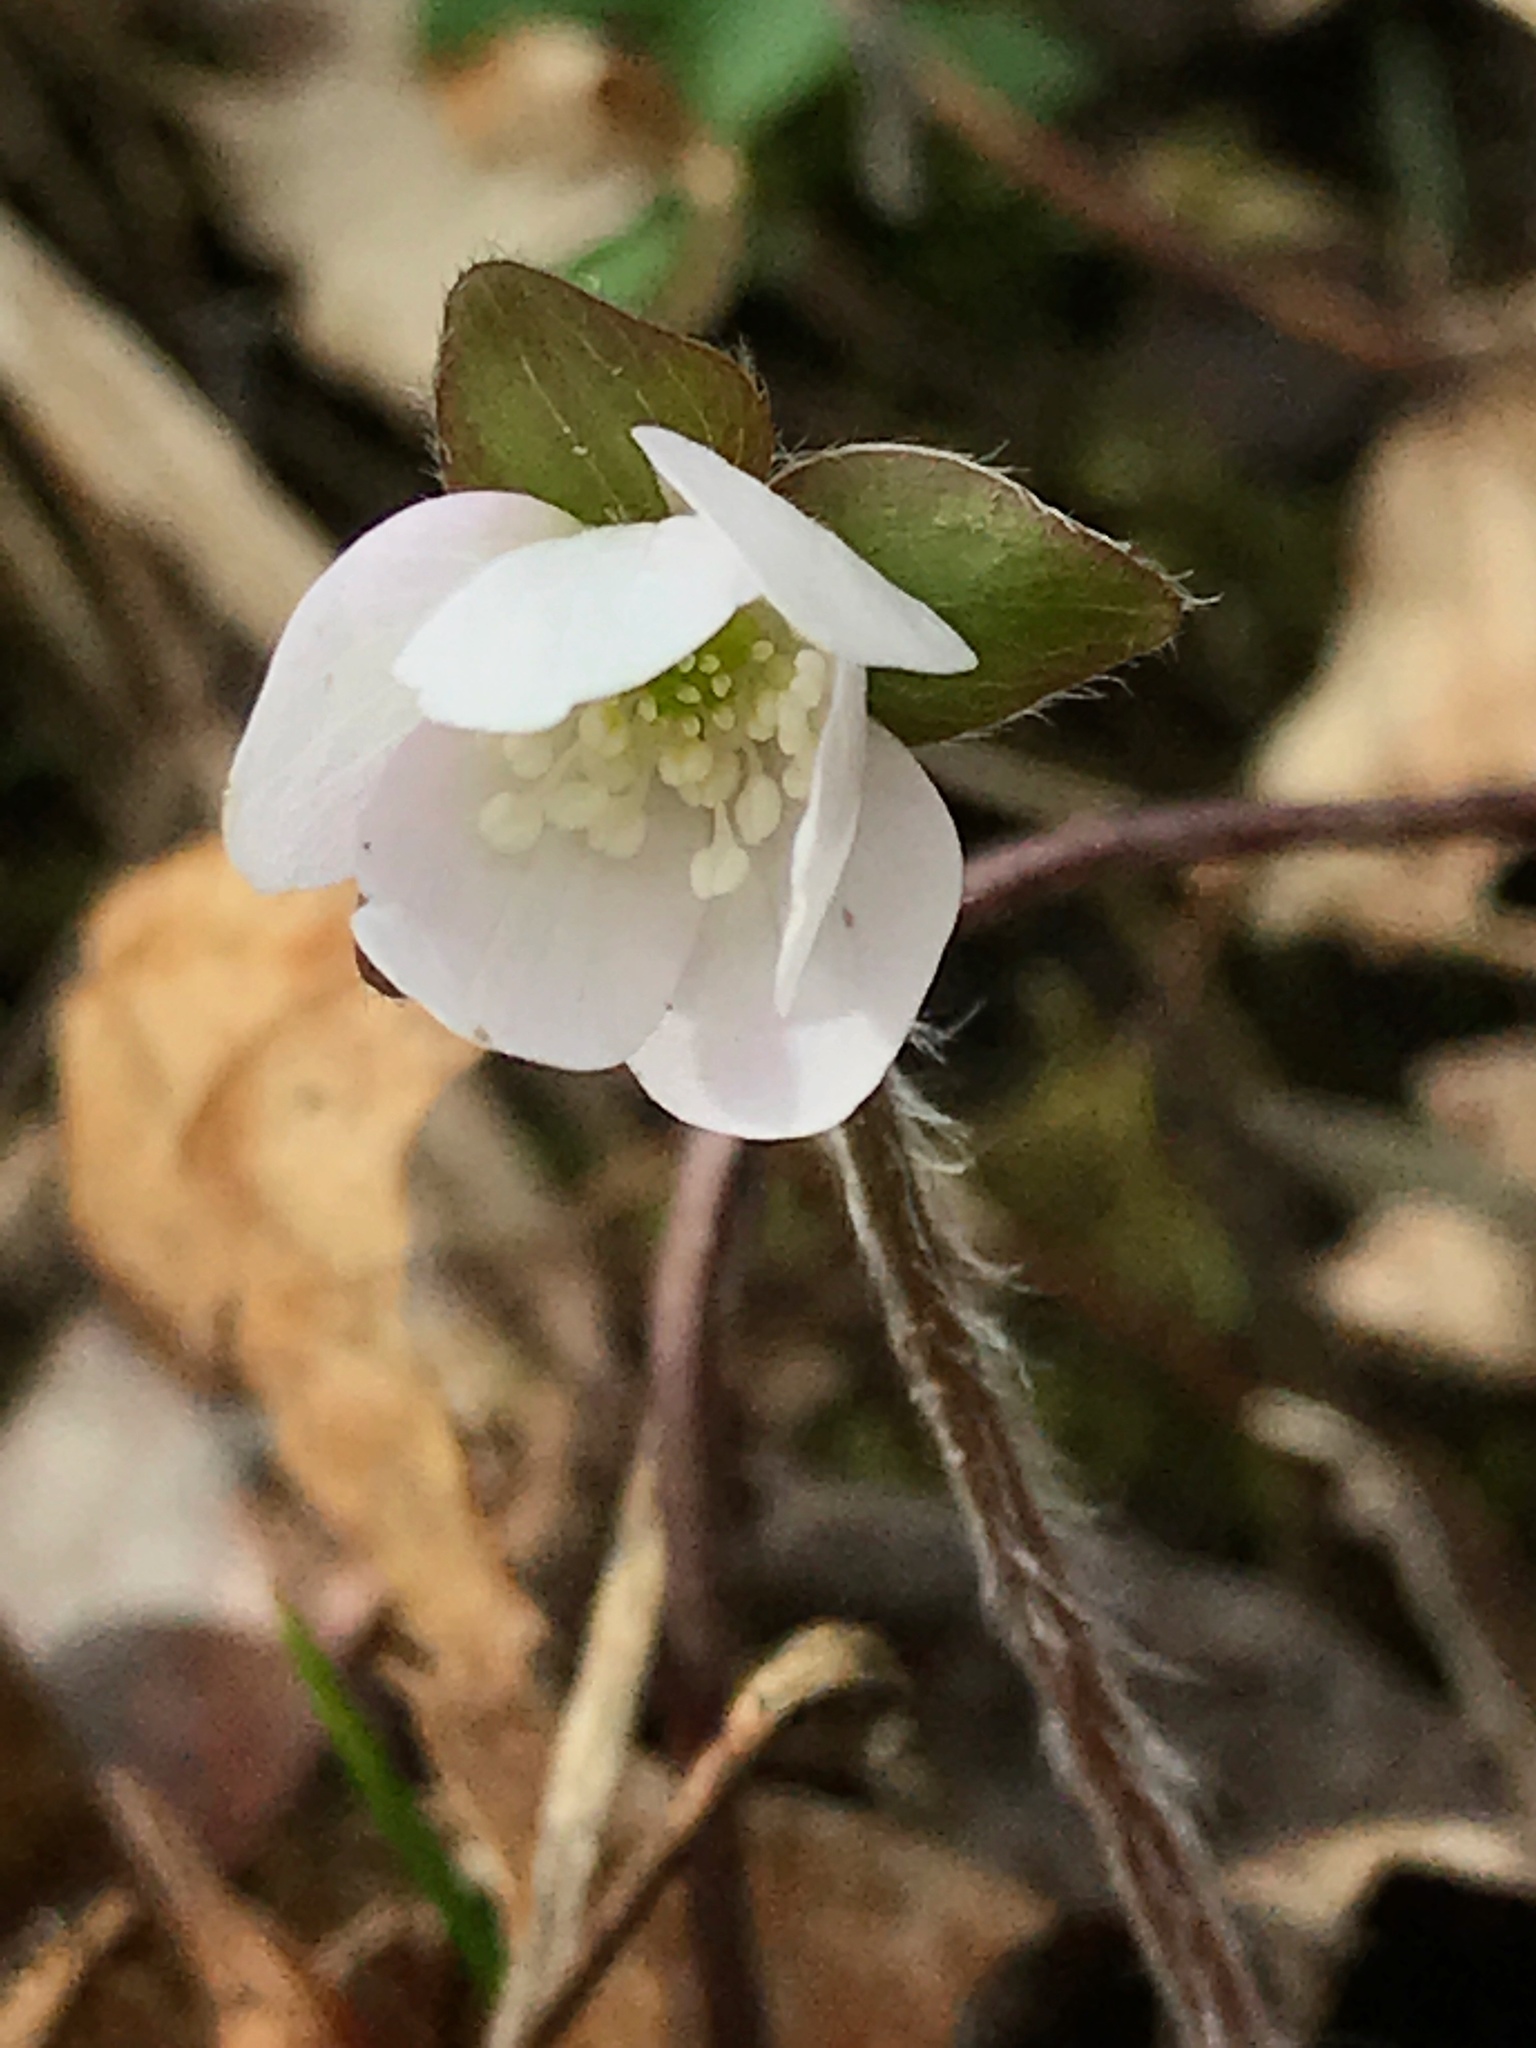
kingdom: Plantae
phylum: Tracheophyta
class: Magnoliopsida
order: Ranunculales
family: Ranunculaceae
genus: Hepatica
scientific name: Hepatica acutiloba
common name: Sharp-lobed hepatica
